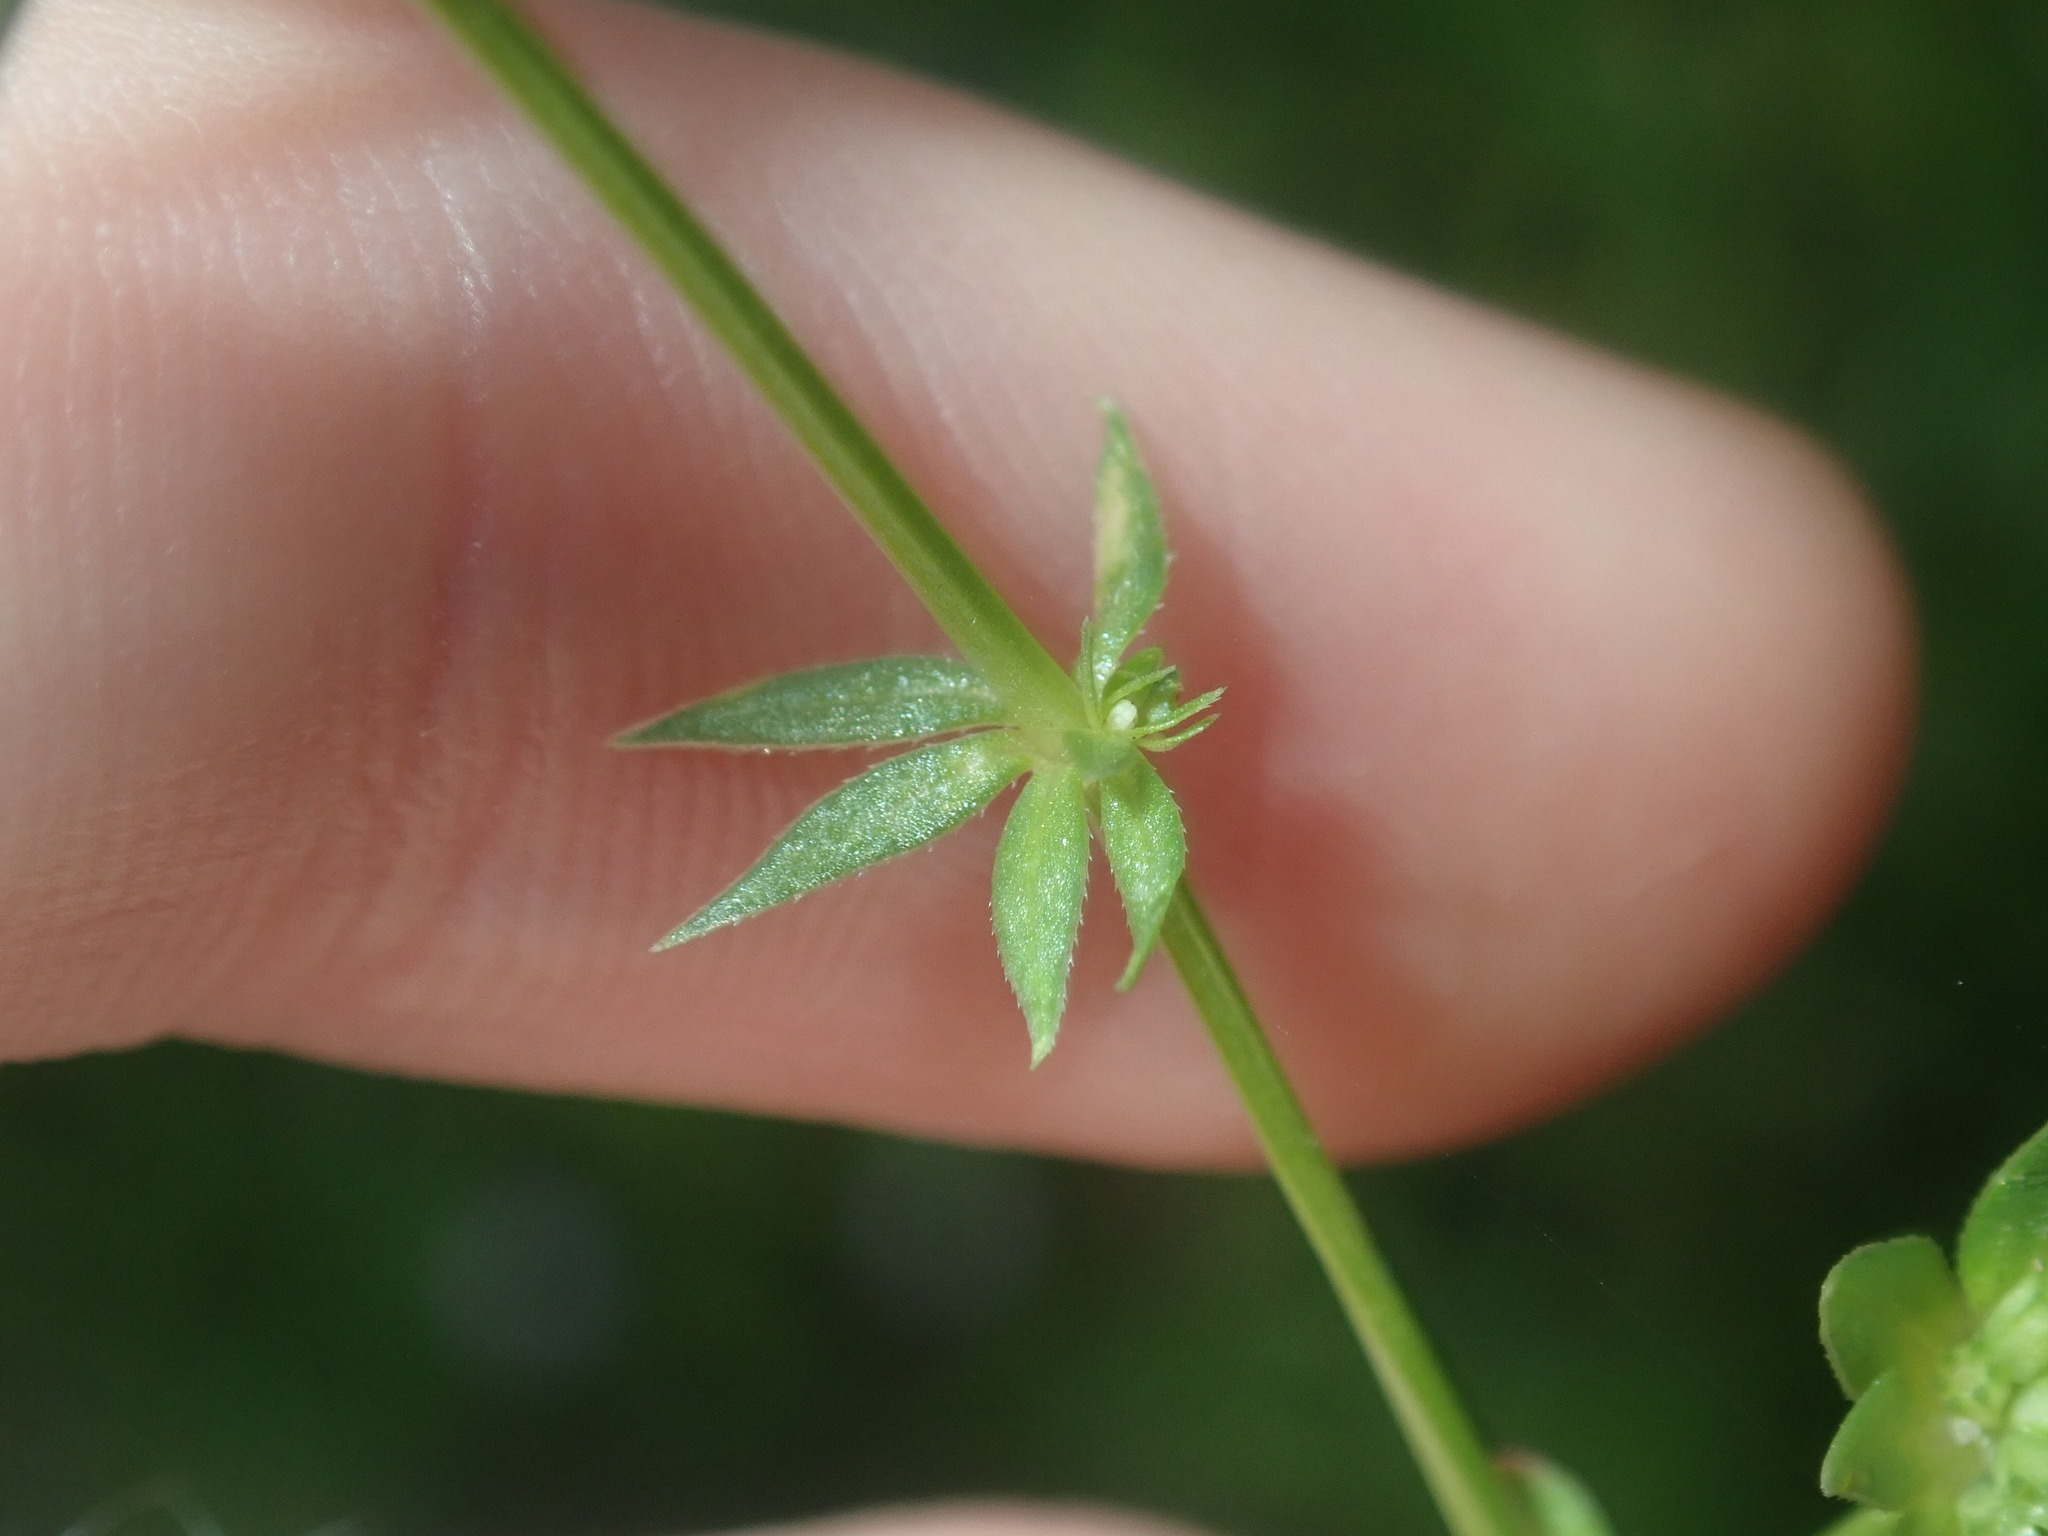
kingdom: Plantae
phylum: Tracheophyta
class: Magnoliopsida
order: Gentianales
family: Rubiaceae
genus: Sherardia
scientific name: Sherardia arvensis
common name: Field madder
